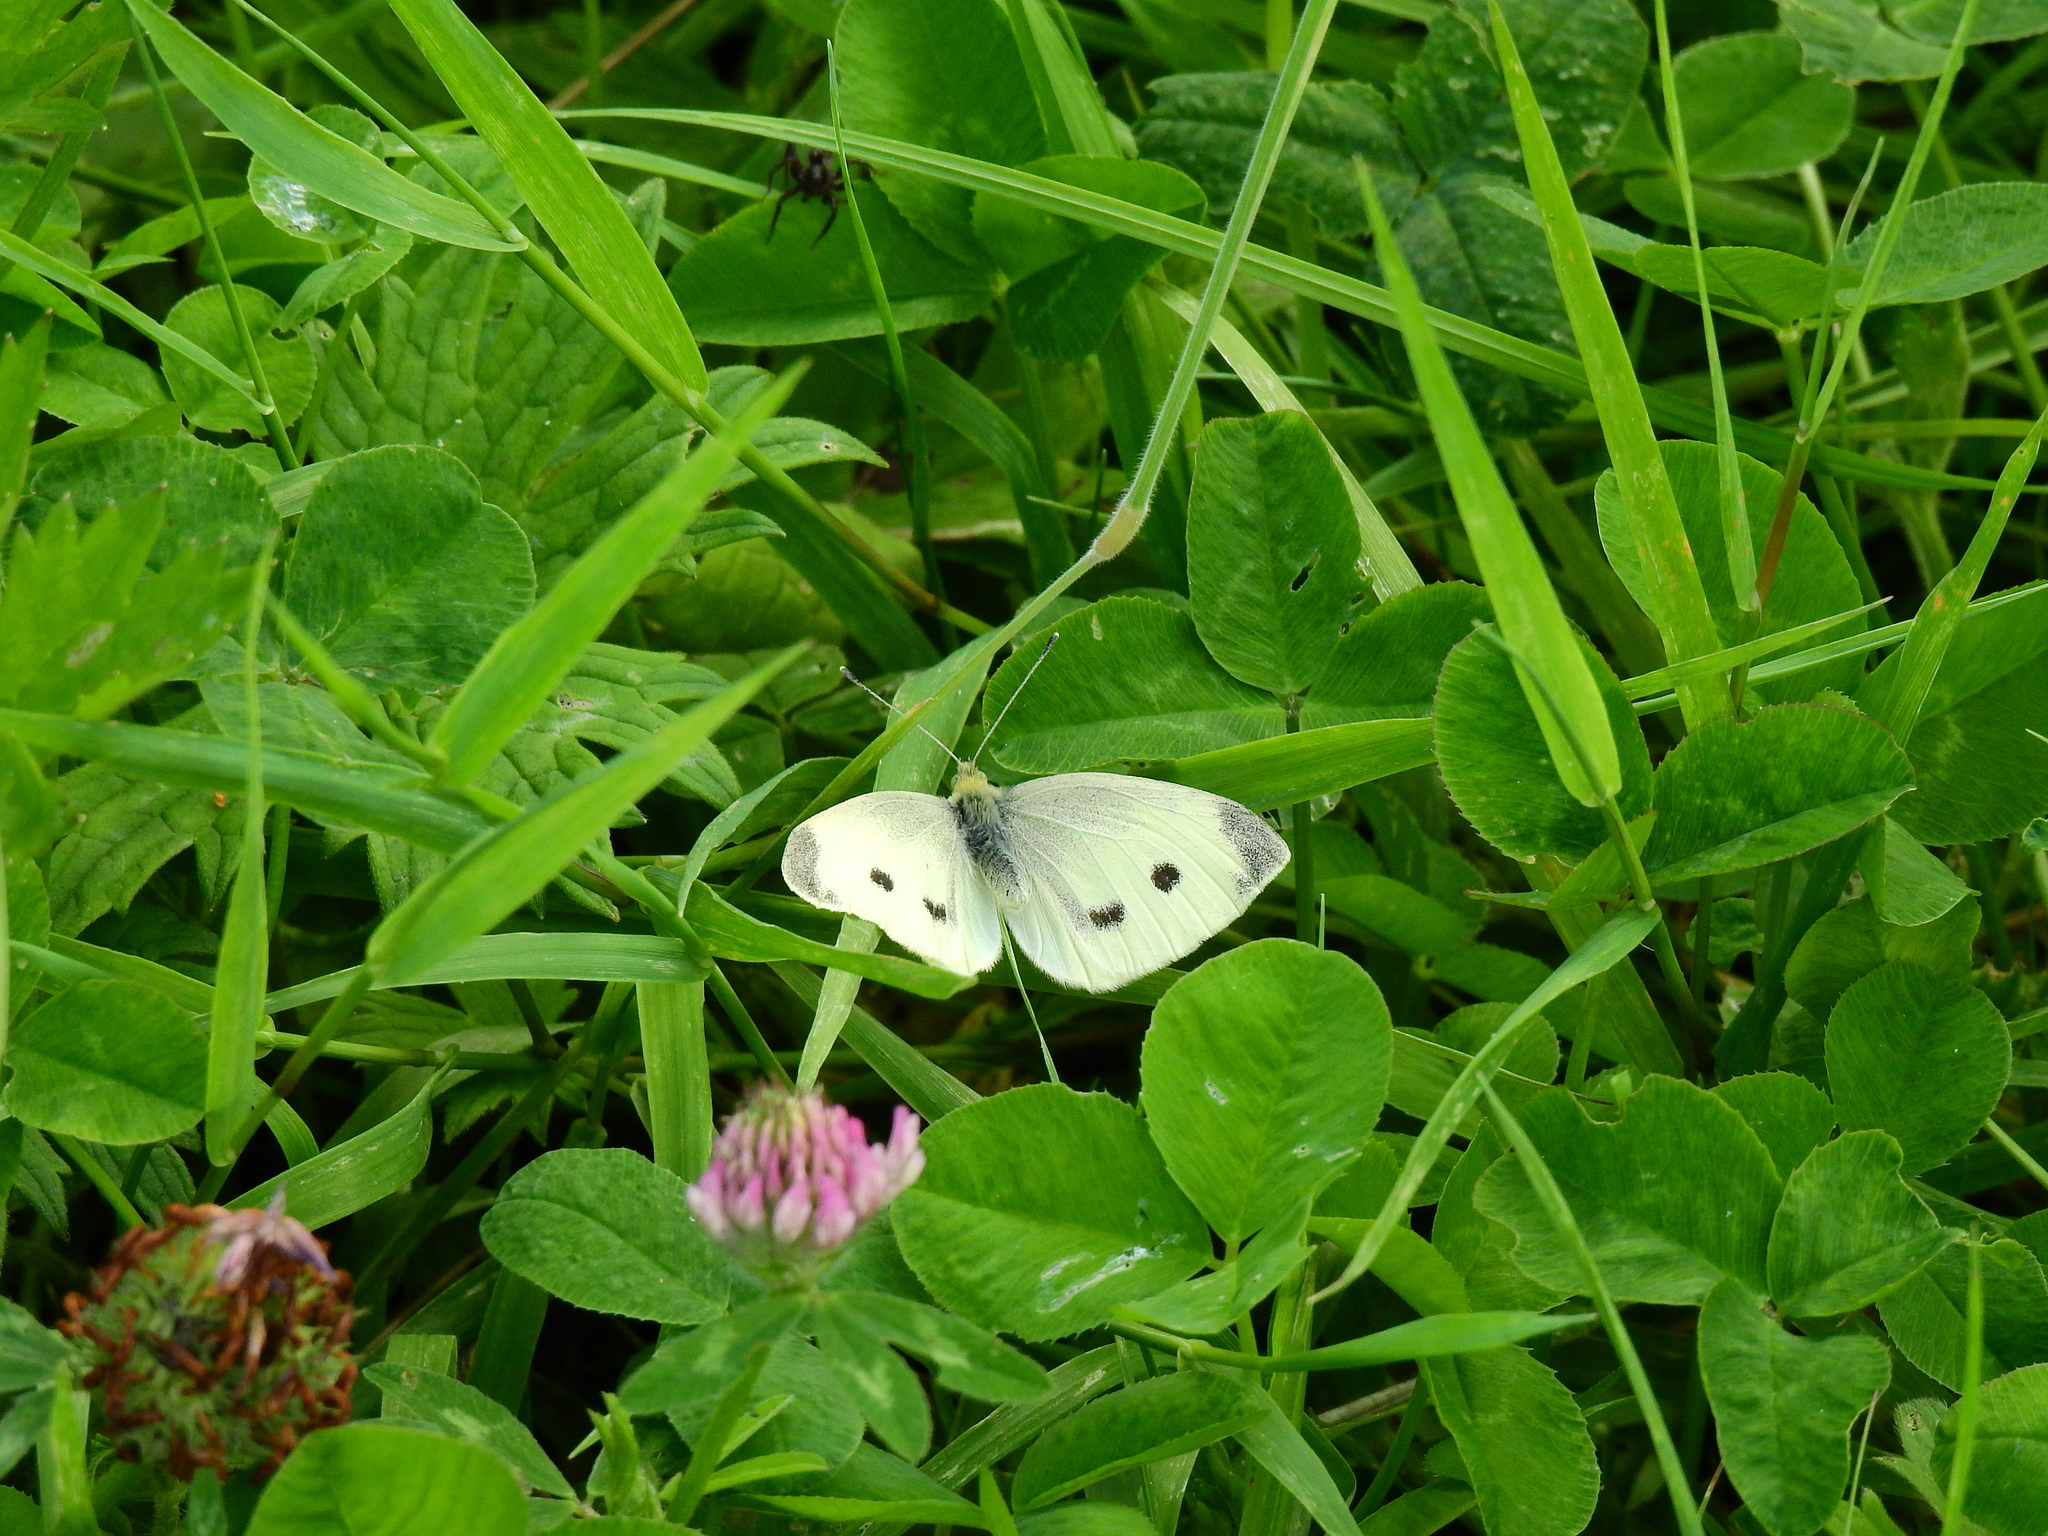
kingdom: Animalia
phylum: Arthropoda
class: Insecta
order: Lepidoptera
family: Pieridae
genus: Pieris
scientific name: Pieris rapae
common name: Small white
